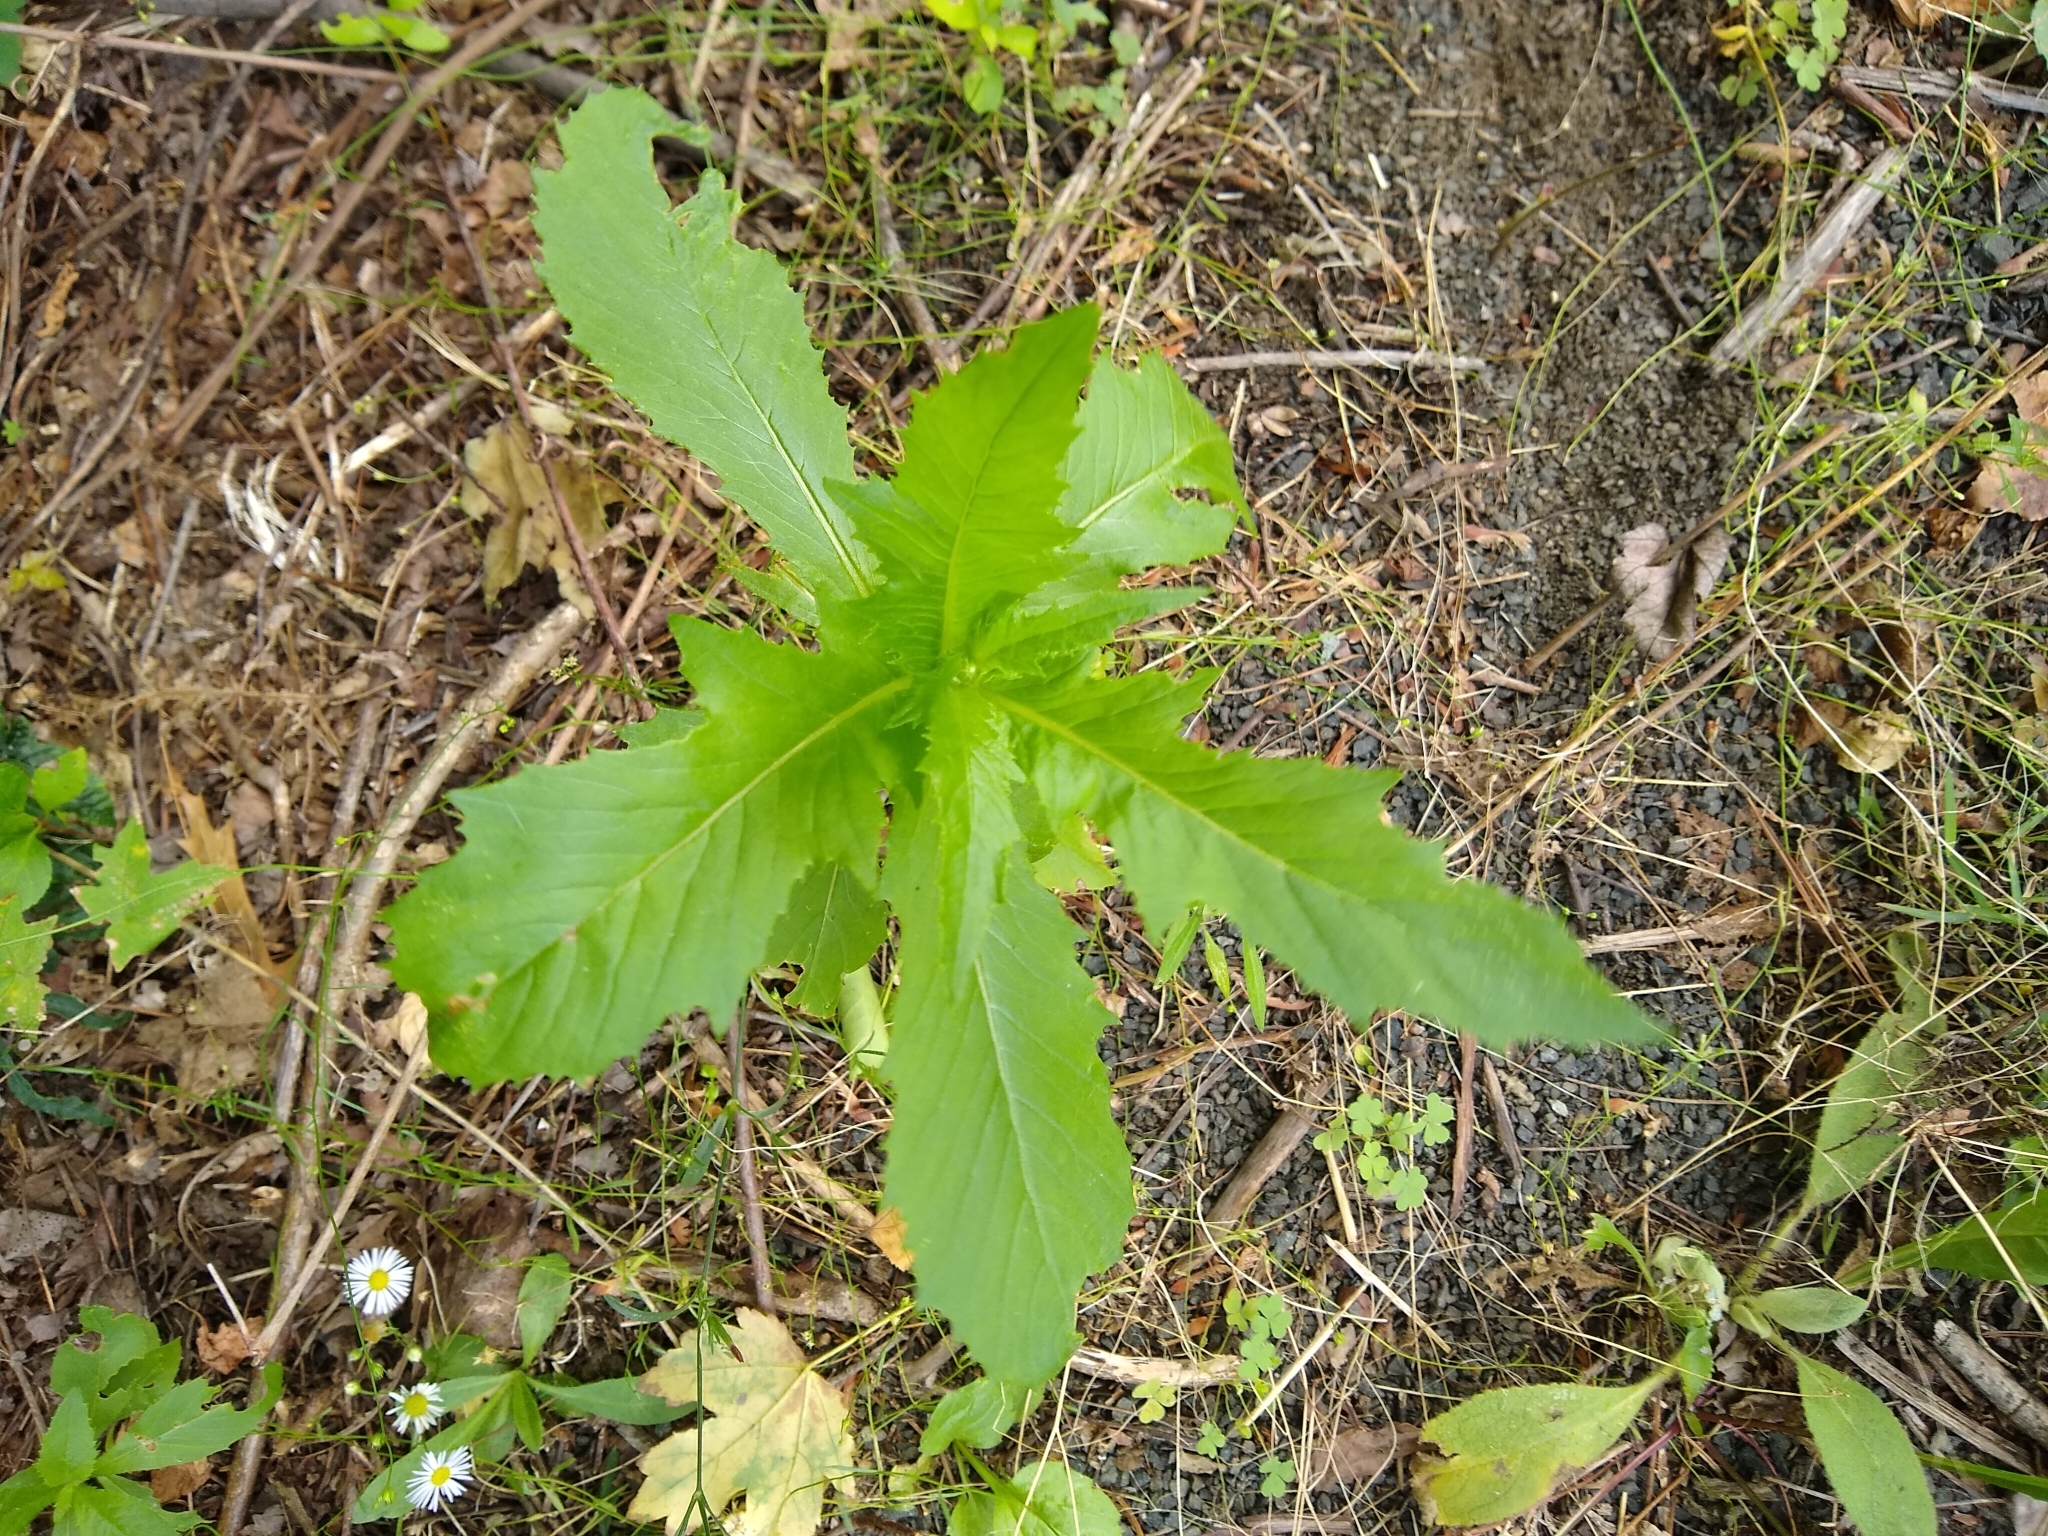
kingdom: Plantae
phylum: Tracheophyta
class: Magnoliopsida
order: Asterales
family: Asteraceae
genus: Erechtites
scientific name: Erechtites hieraciifolius
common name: American burnweed
